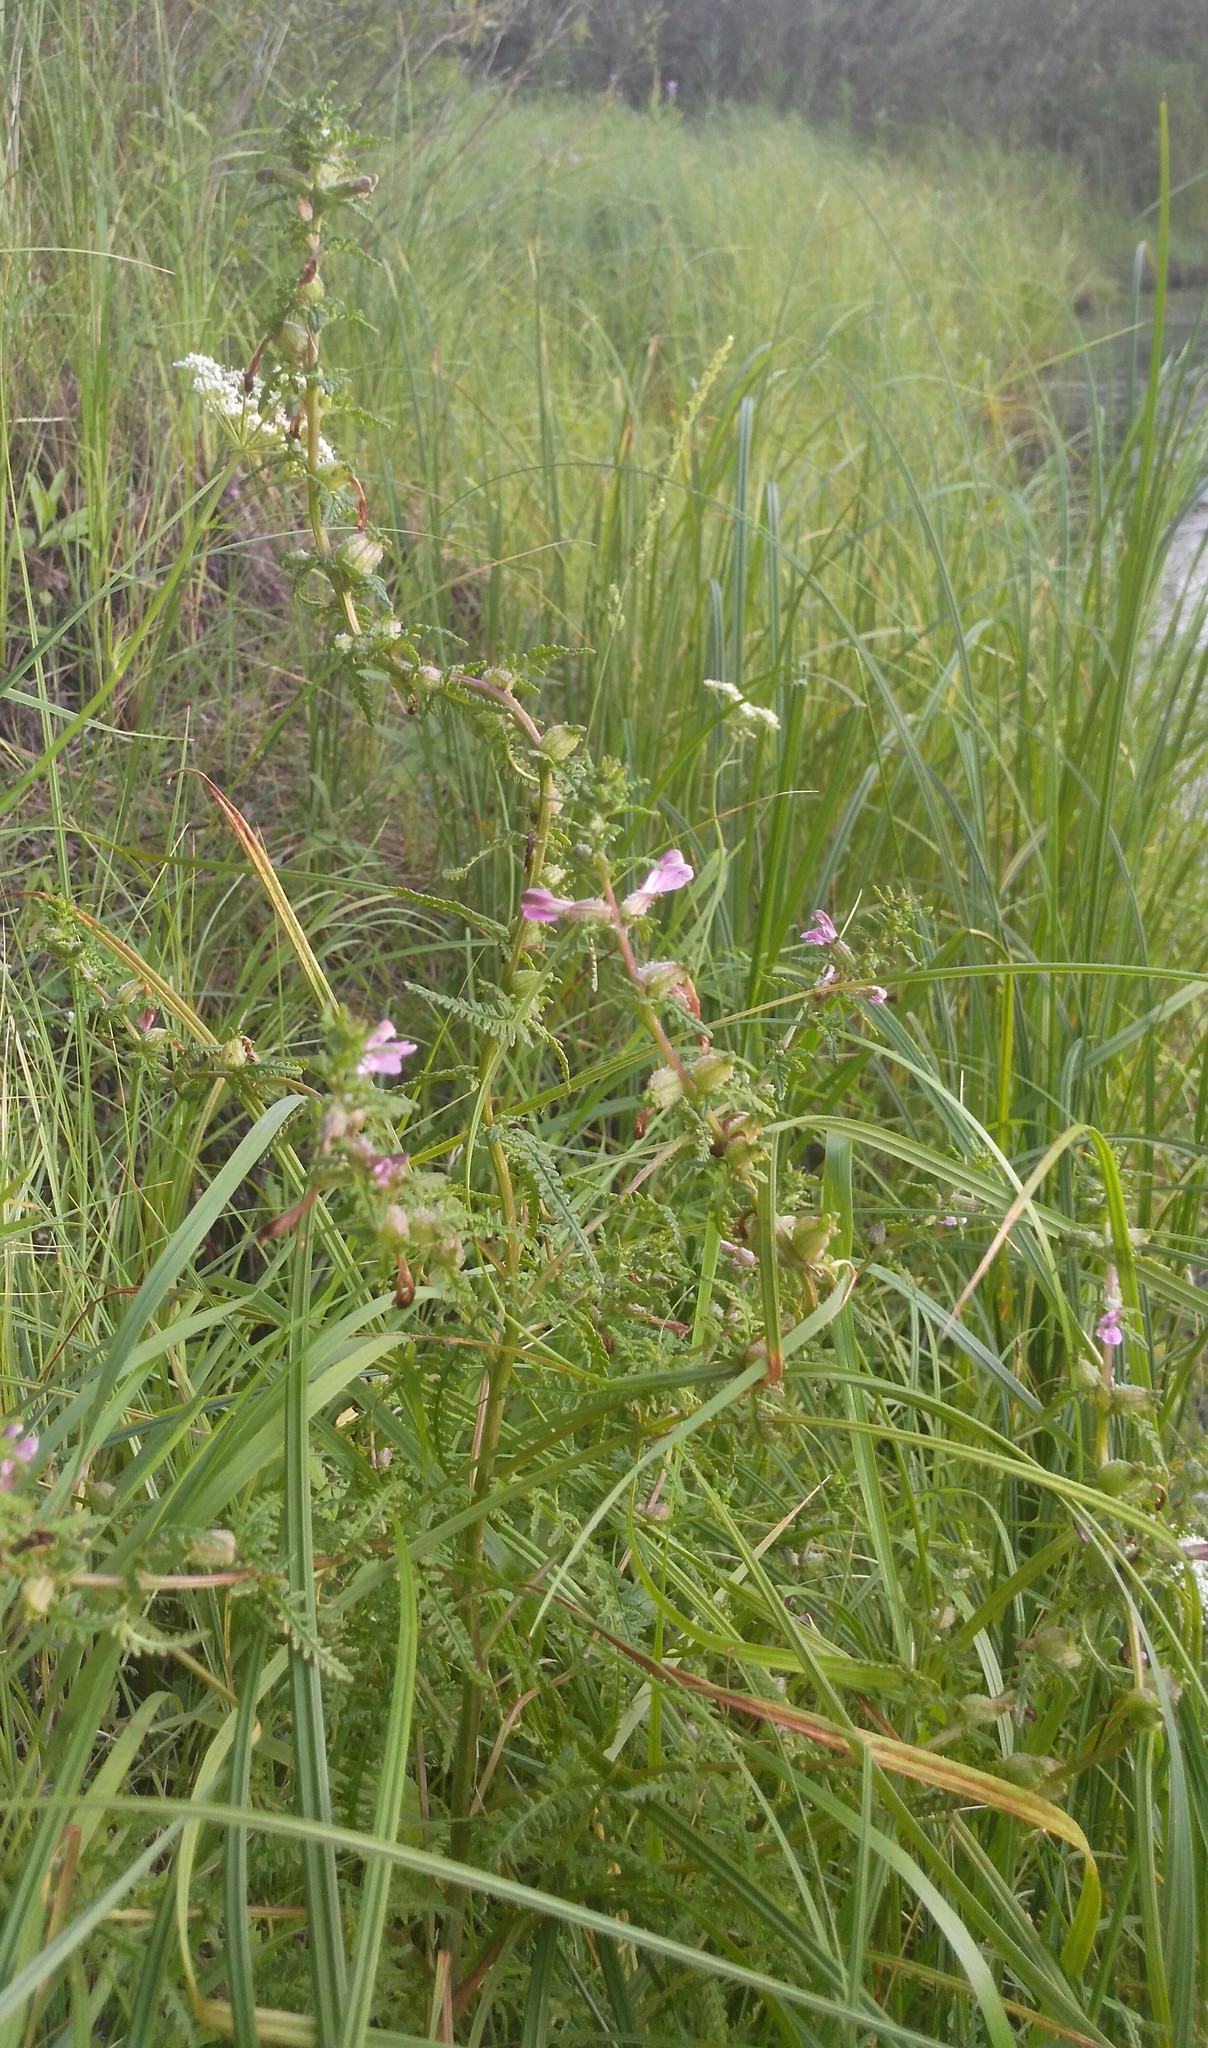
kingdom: Plantae
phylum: Tracheophyta
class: Magnoliopsida
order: Lamiales
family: Orobanchaceae
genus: Pedicularis
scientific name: Pedicularis karoi
